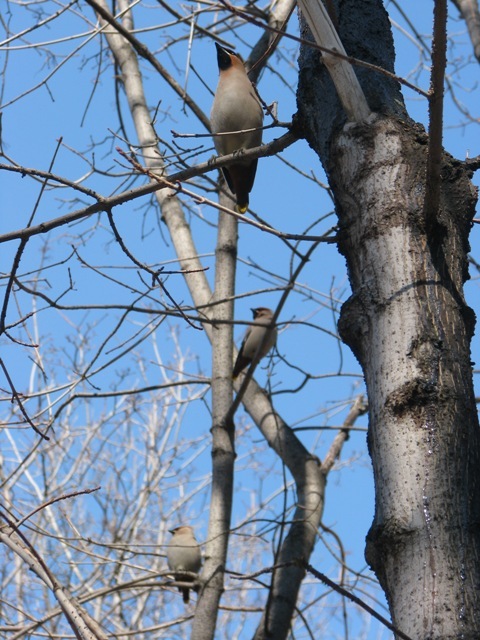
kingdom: Animalia
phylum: Chordata
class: Aves
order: Passeriformes
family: Bombycillidae
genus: Bombycilla
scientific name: Bombycilla garrulus
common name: Bohemian waxwing
